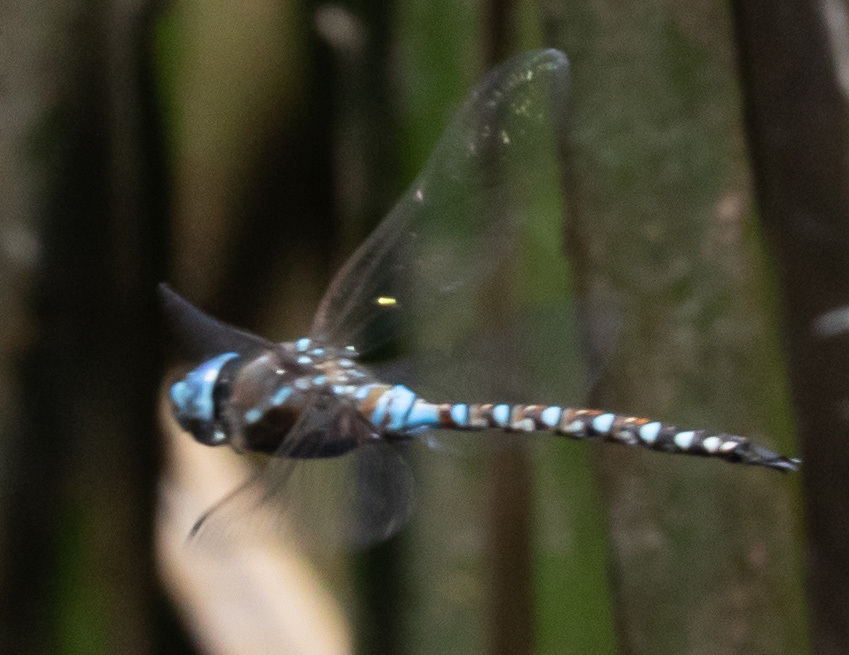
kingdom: Animalia
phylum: Arthropoda
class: Insecta
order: Odonata
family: Aeshnidae
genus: Rhionaeschna
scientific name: Rhionaeschna multicolor
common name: Blue-eyed darner
